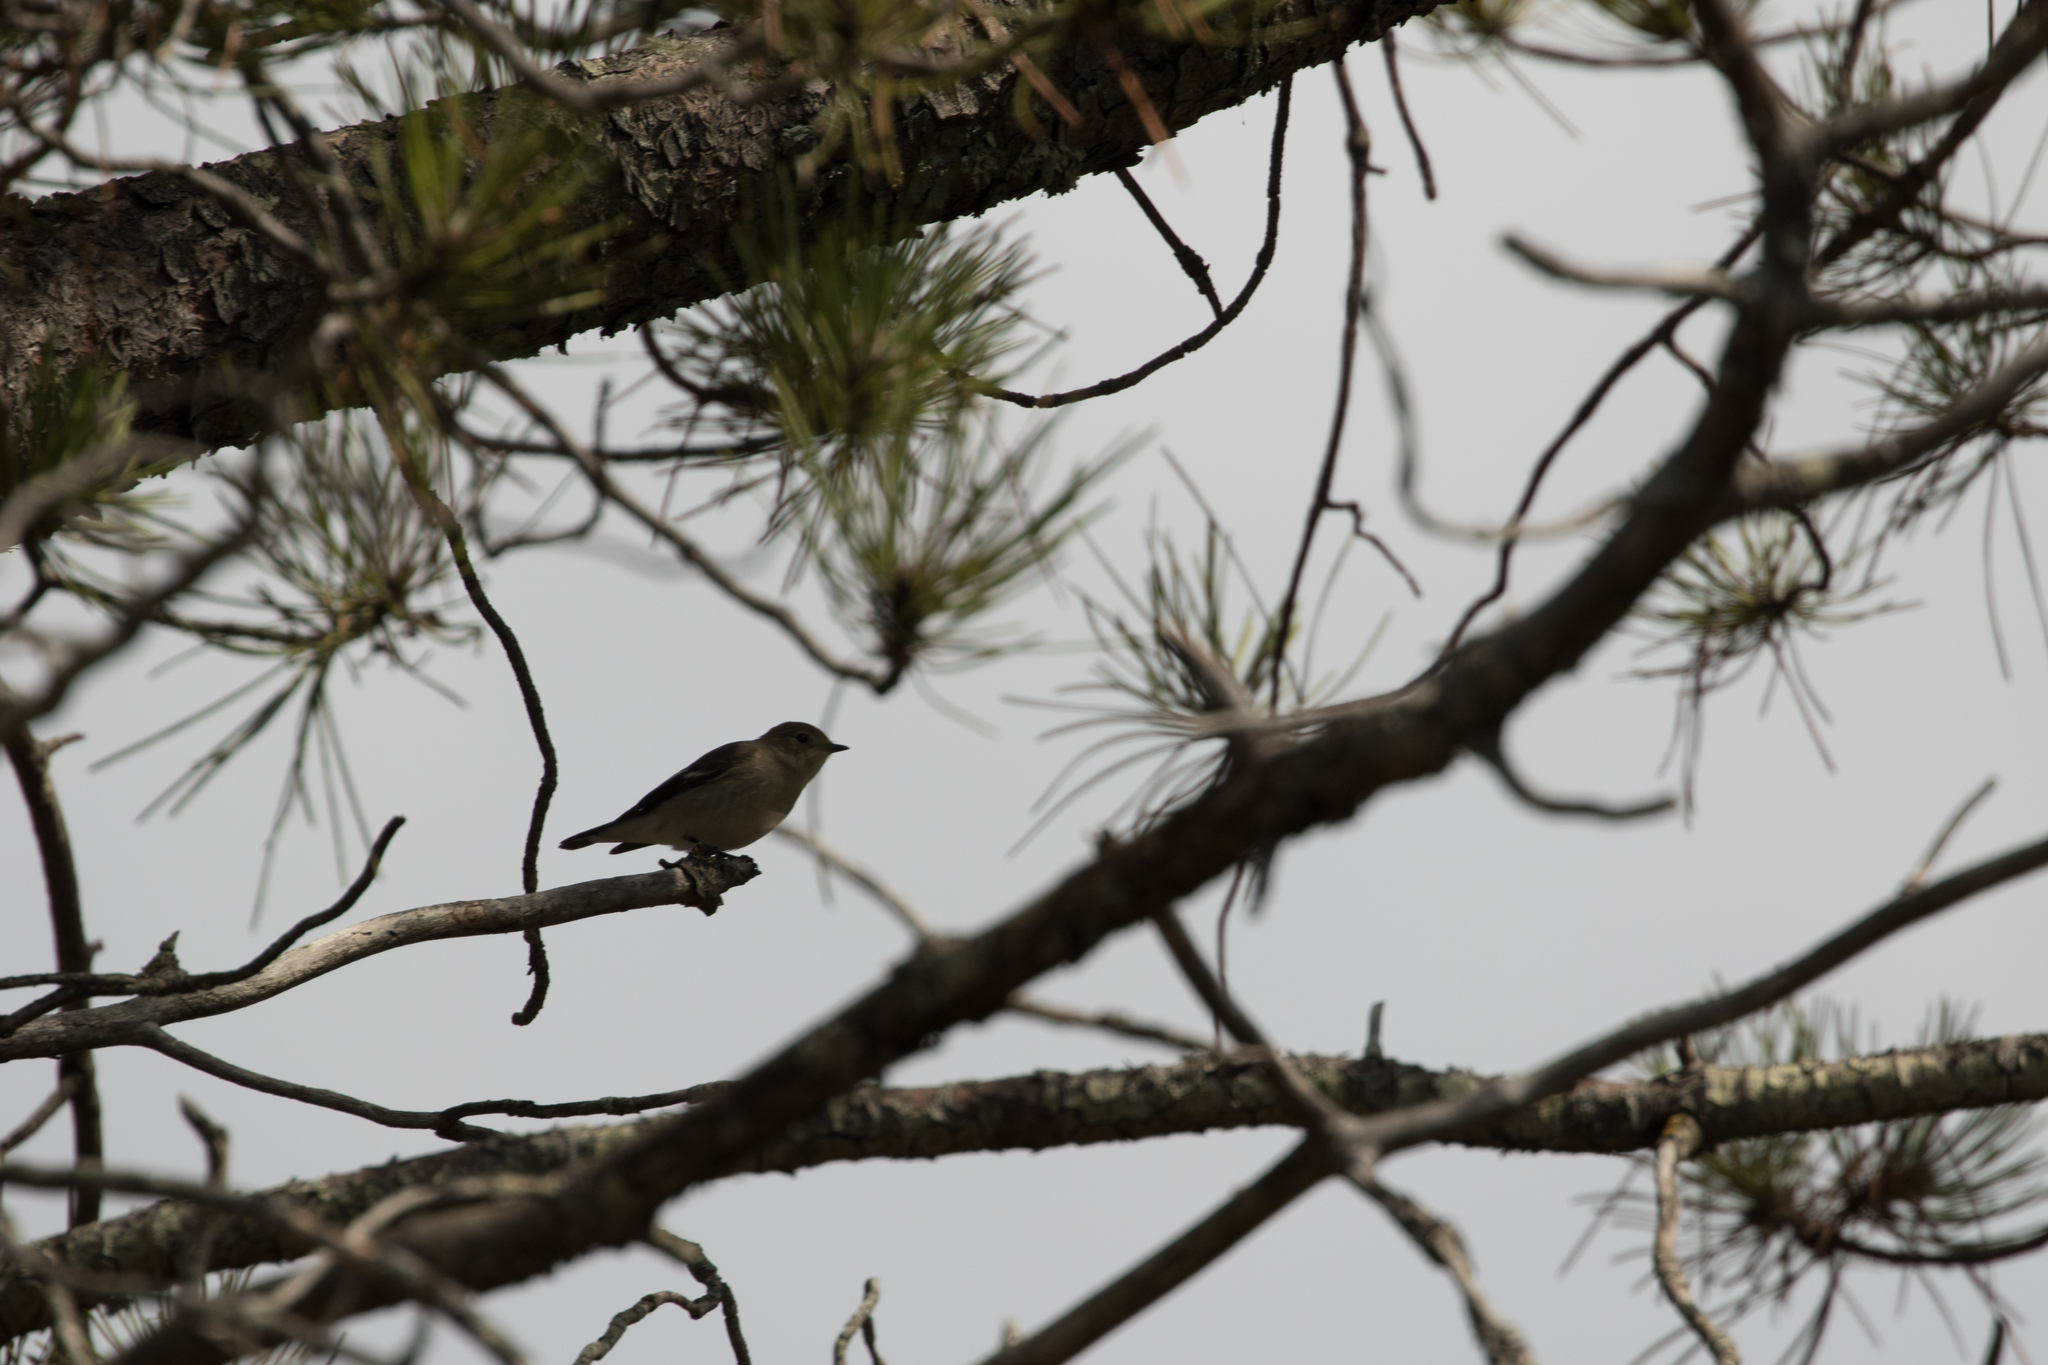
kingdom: Animalia
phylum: Chordata
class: Aves
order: Passeriformes
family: Muscicapidae
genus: Ficedula
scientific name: Ficedula hypoleuca
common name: European pied flycatcher
